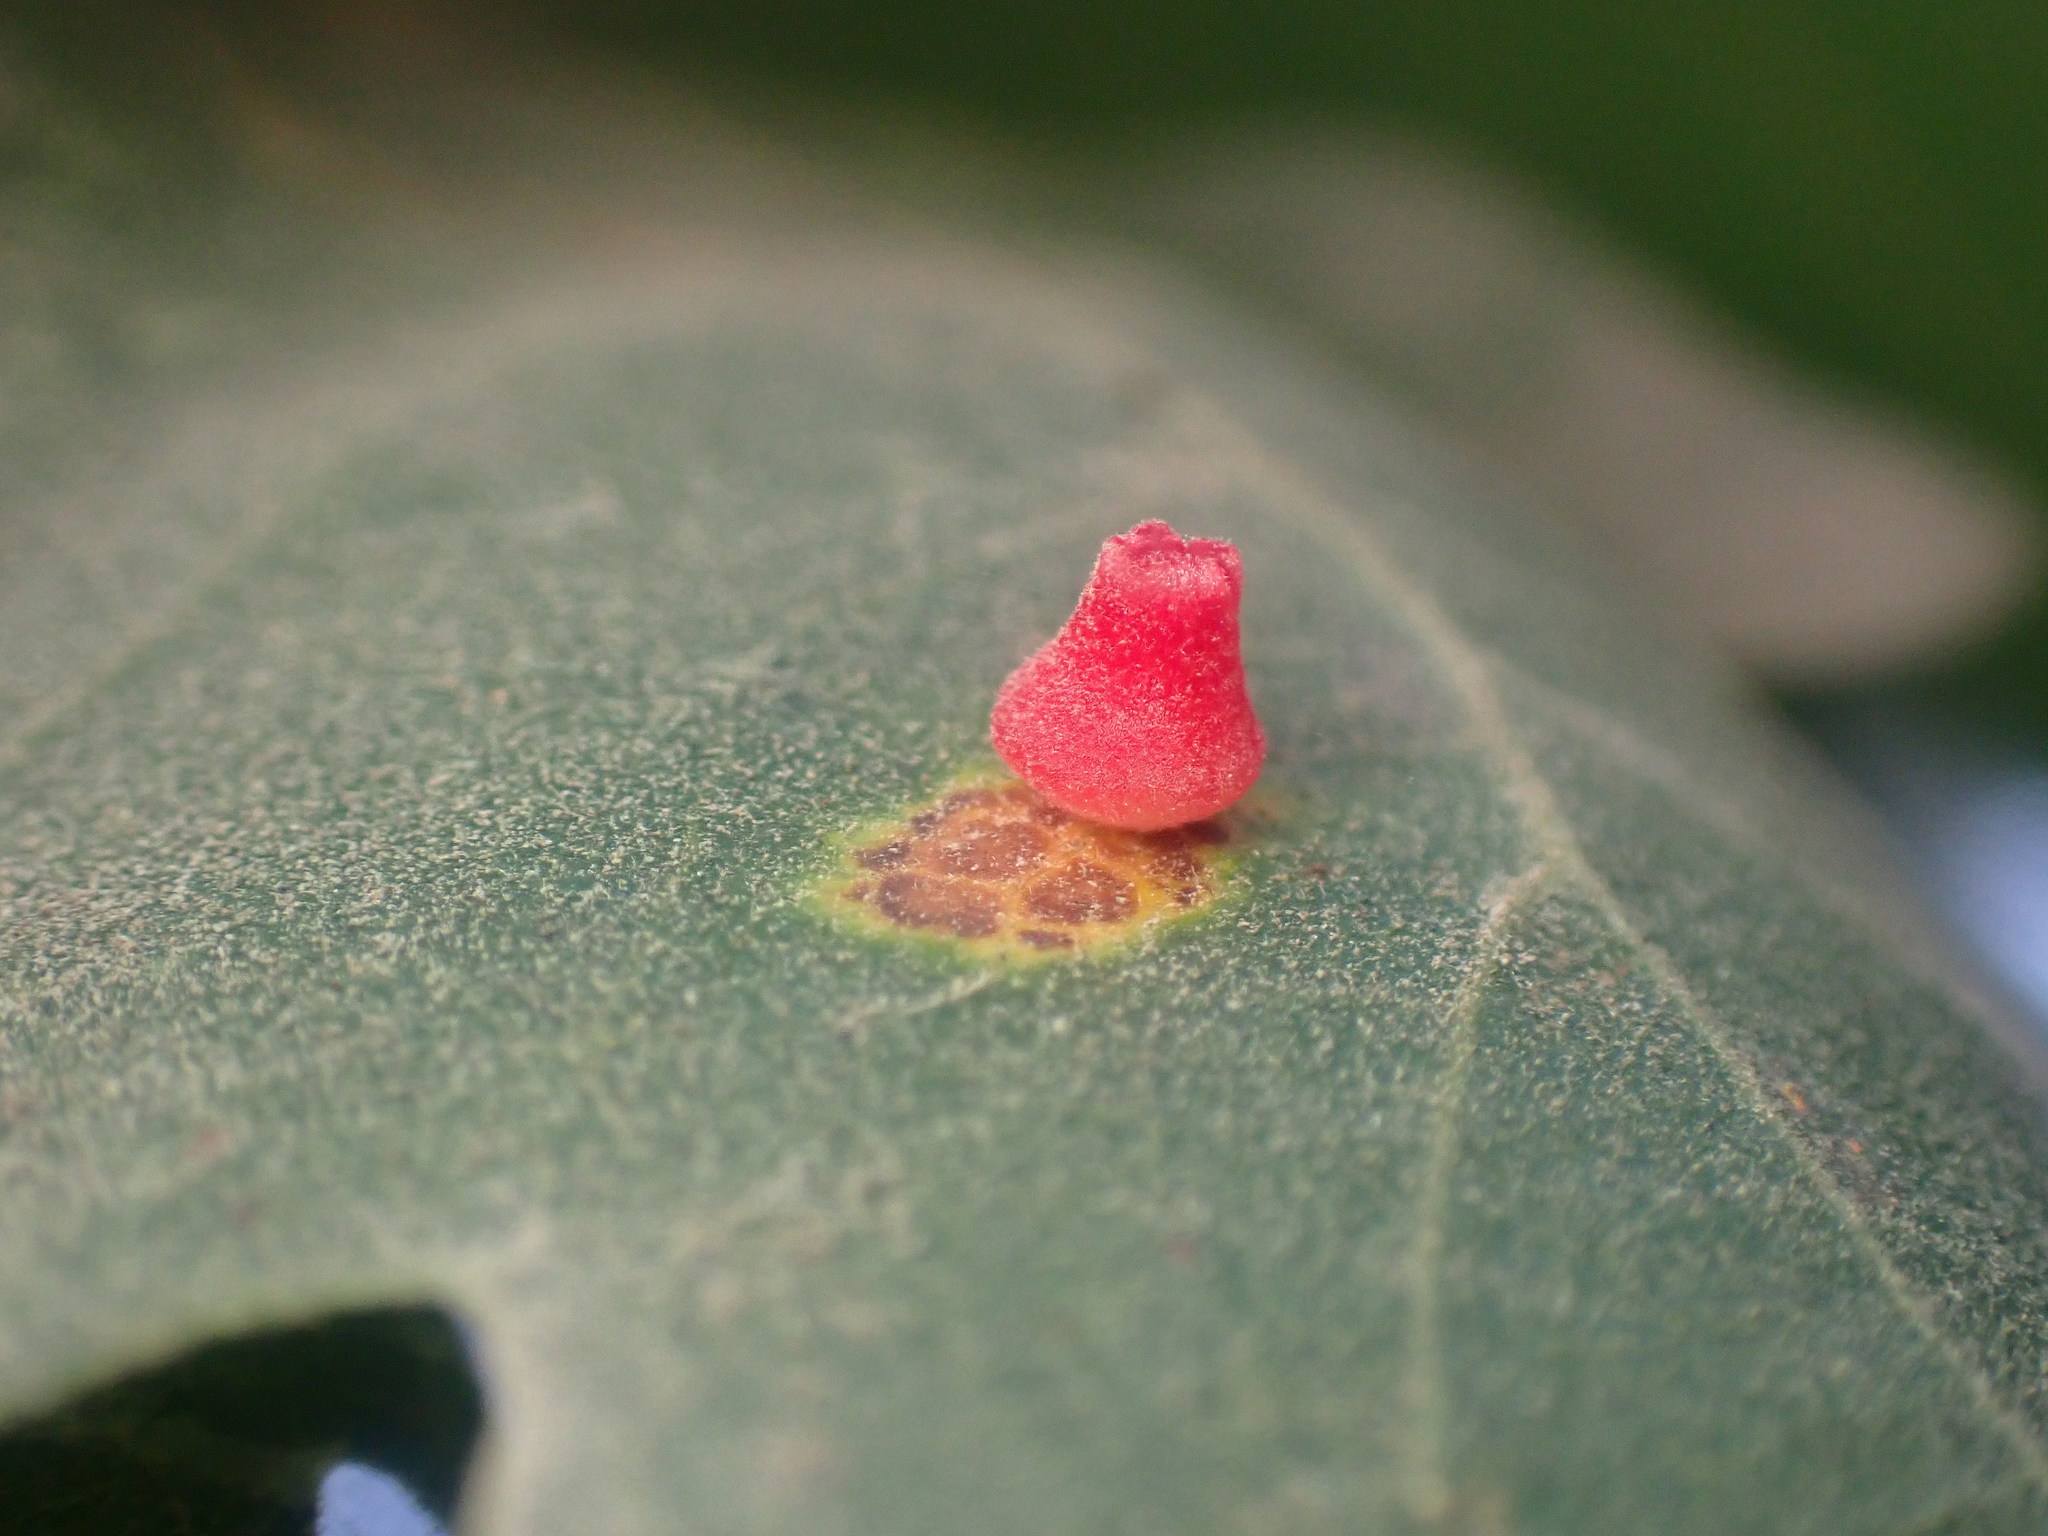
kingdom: Animalia
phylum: Arthropoda
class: Insecta
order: Hymenoptera
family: Cynipidae
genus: Andricus
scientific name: Andricus
